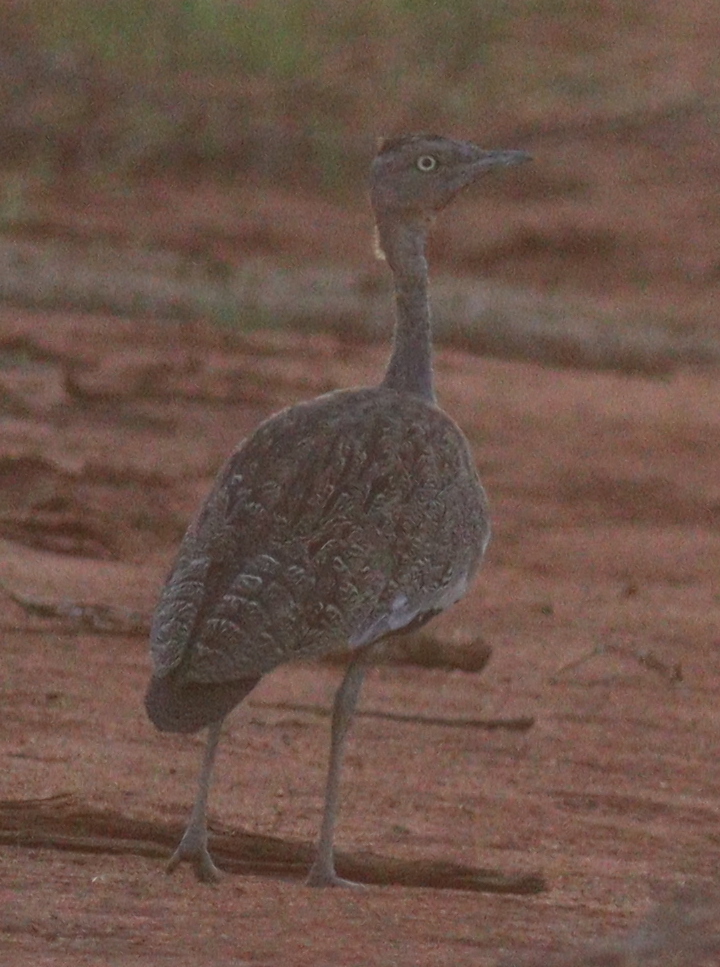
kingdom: Animalia
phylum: Chordata
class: Aves
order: Otidiformes
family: Otididae
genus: Lophotis
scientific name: Lophotis gindiana
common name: Buff-crested bustard
